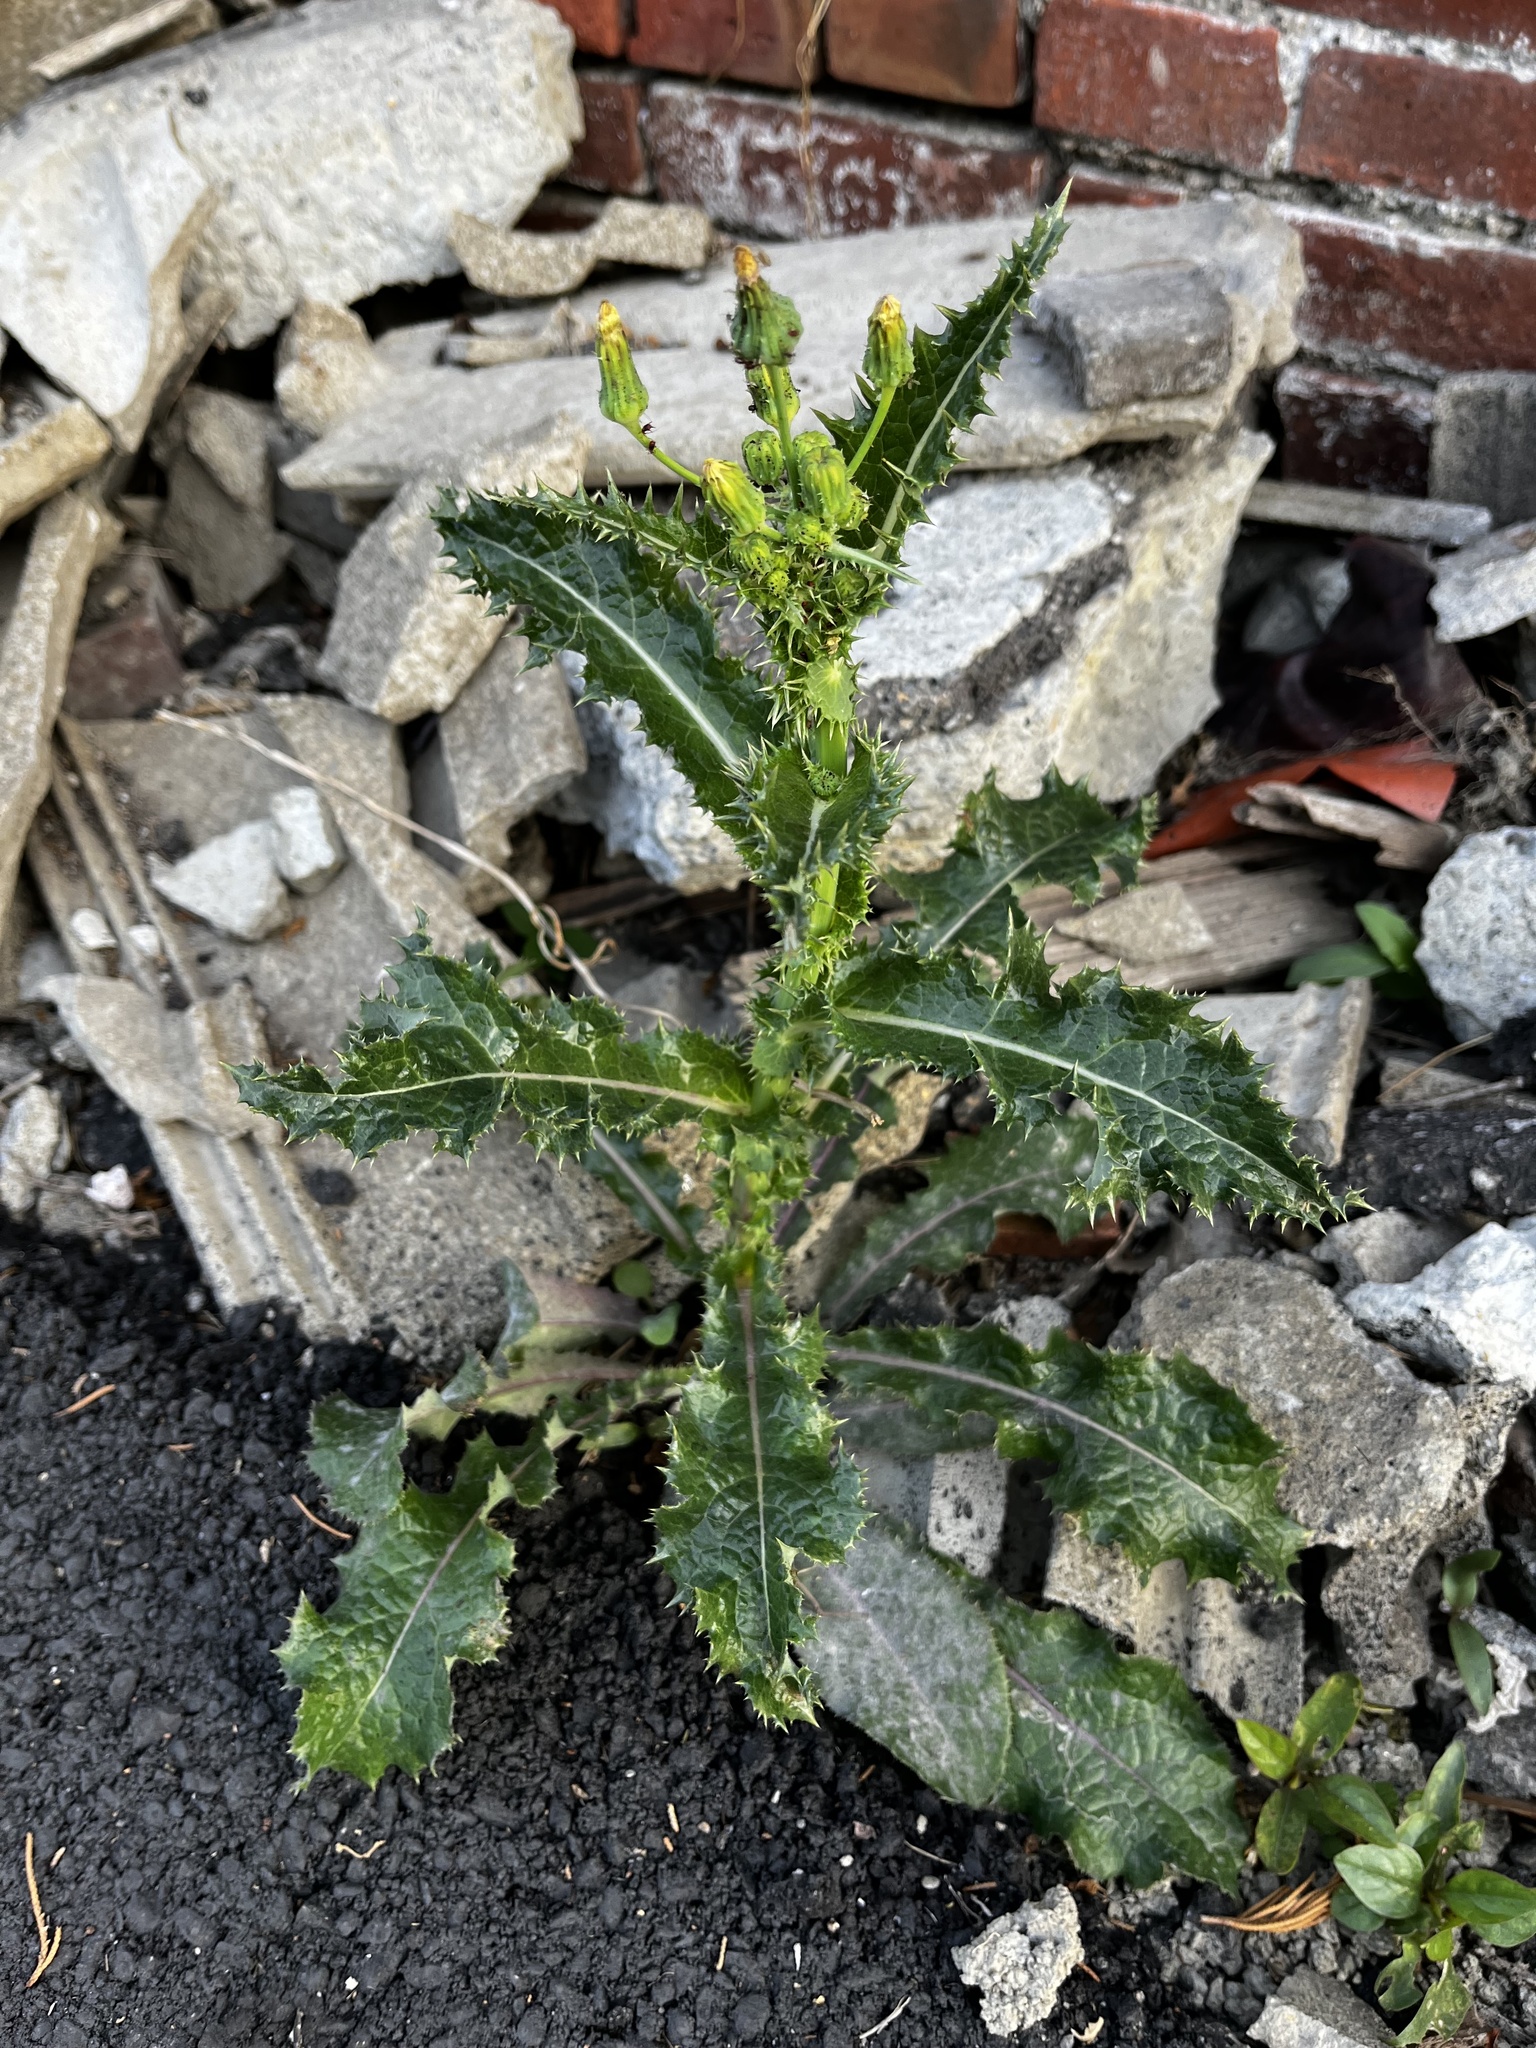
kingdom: Plantae
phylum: Tracheophyta
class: Magnoliopsida
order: Asterales
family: Asteraceae
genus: Sonchus
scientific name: Sonchus asper
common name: Prickly sow-thistle
